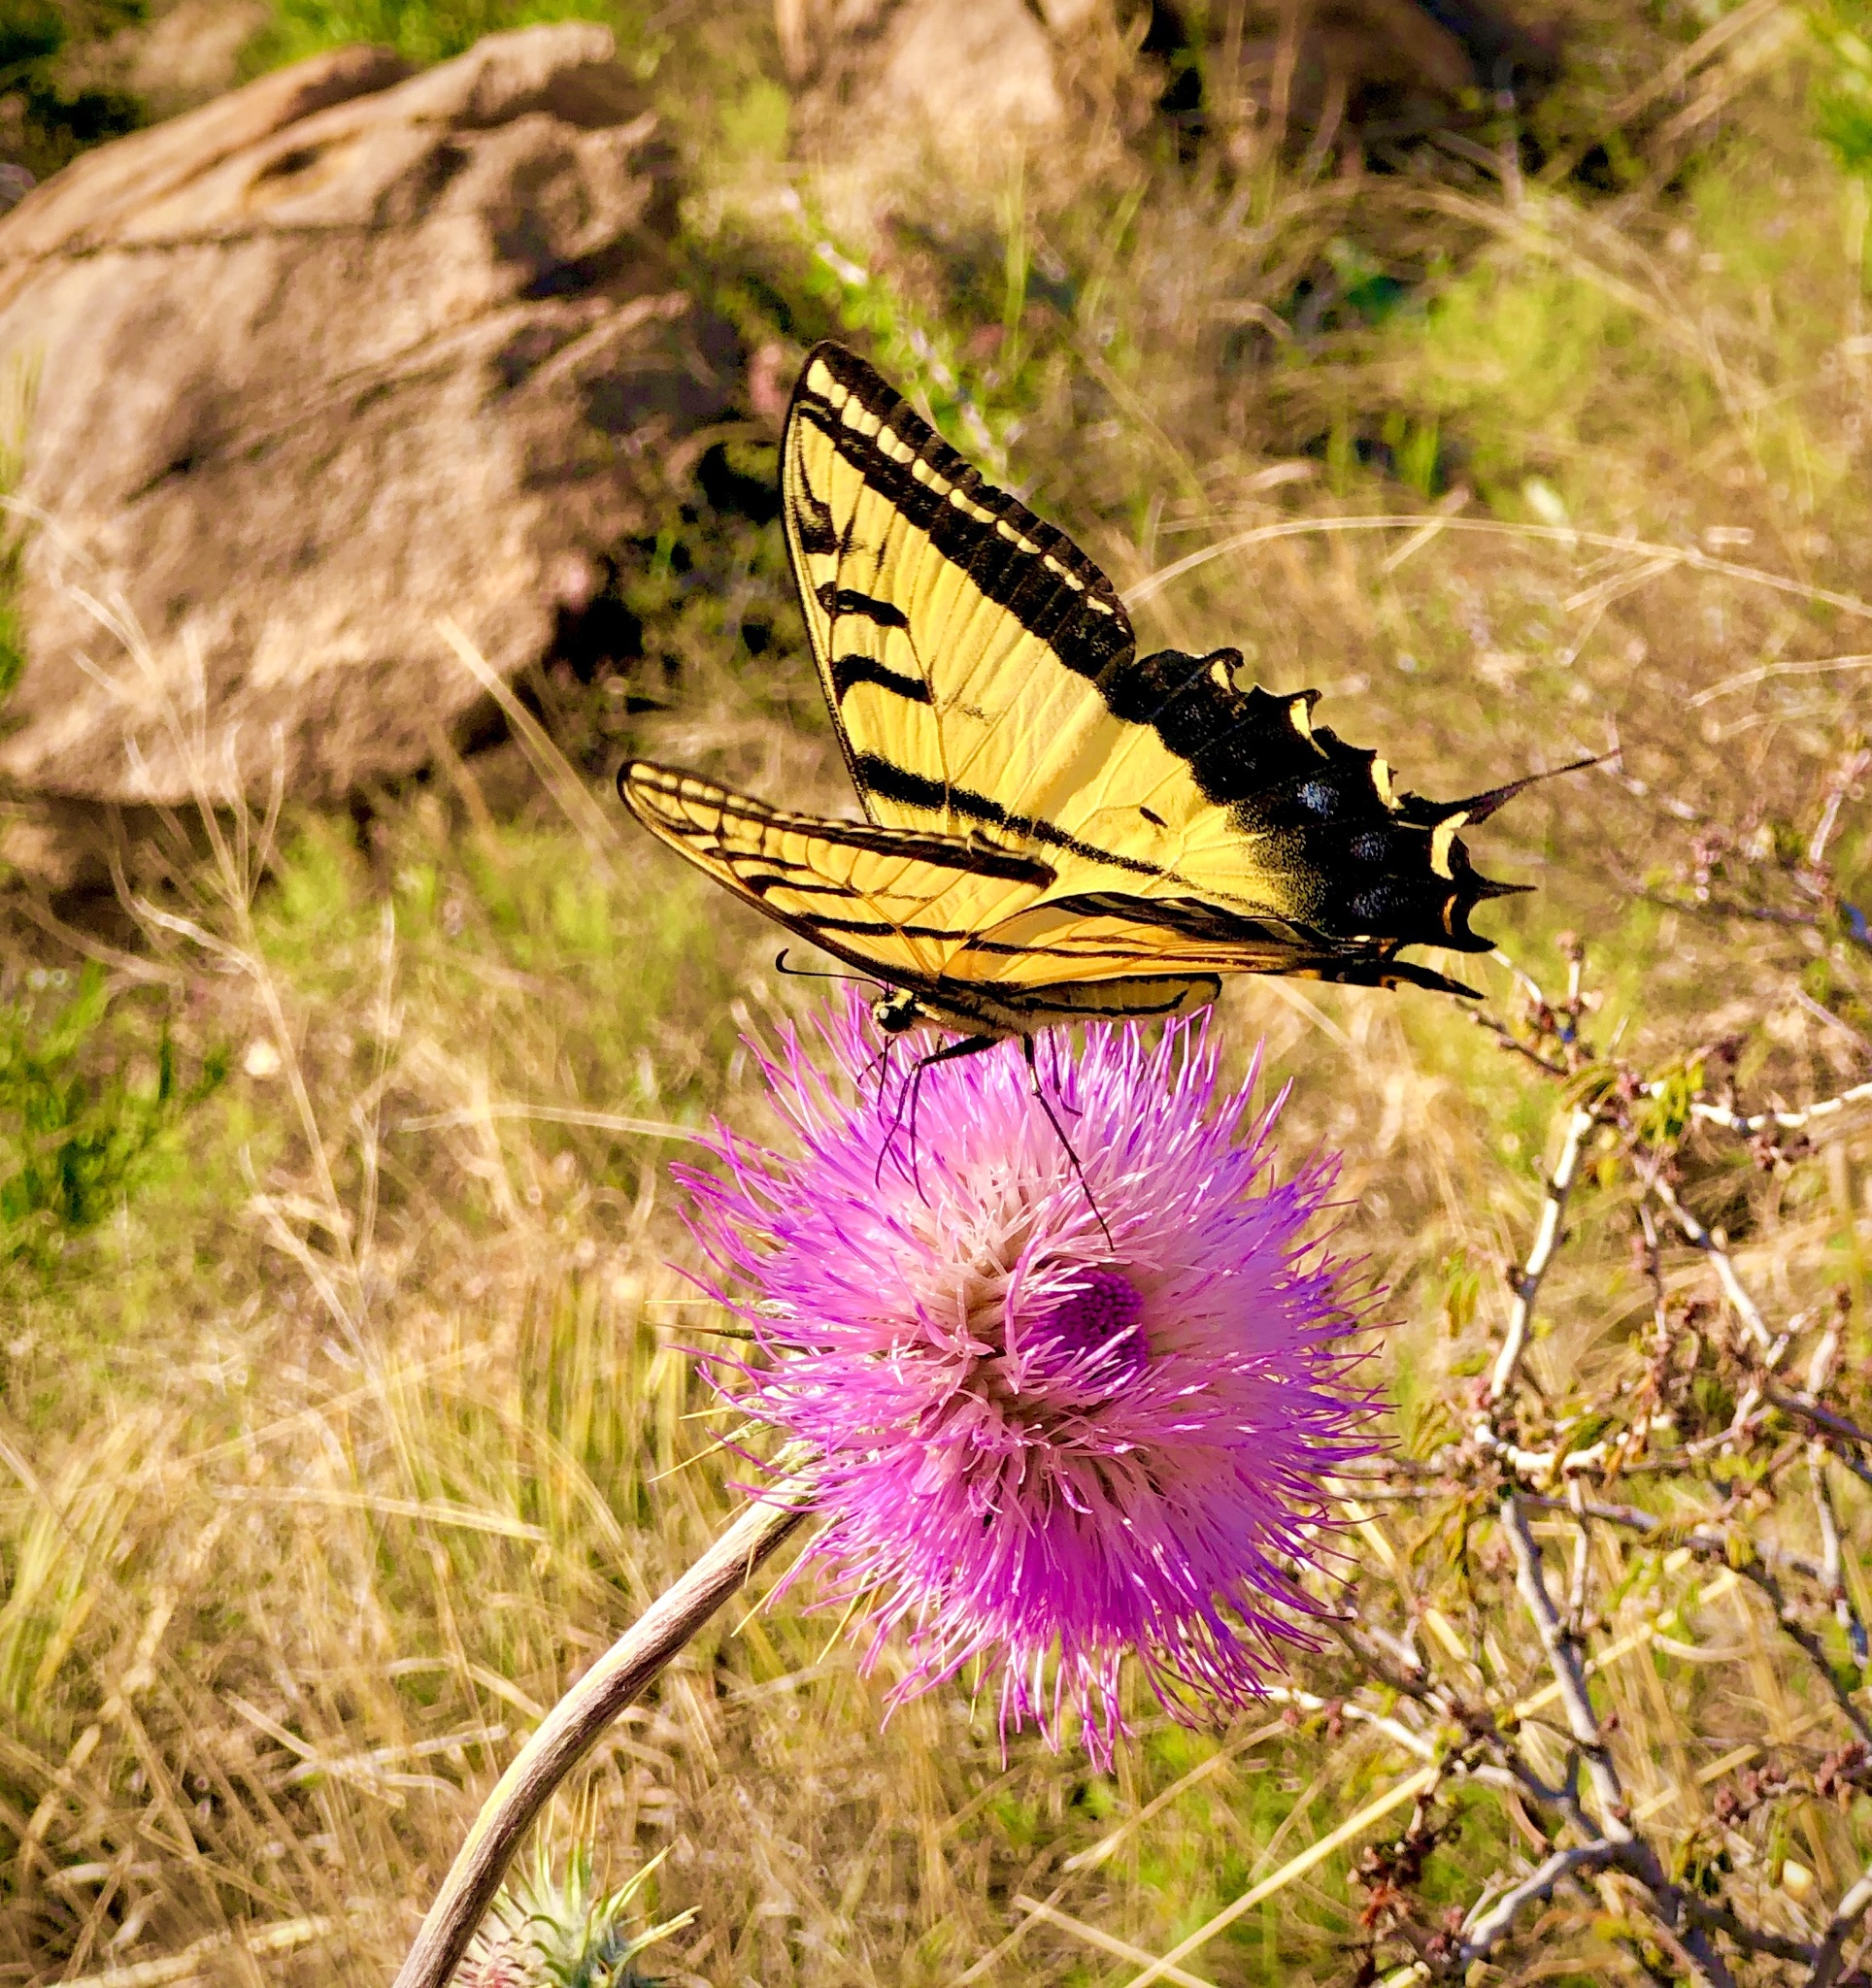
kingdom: Animalia
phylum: Arthropoda
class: Insecta
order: Lepidoptera
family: Papilionidae
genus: Papilio
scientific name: Papilio multicaudata
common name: Two-tailed tiger swallowtail
